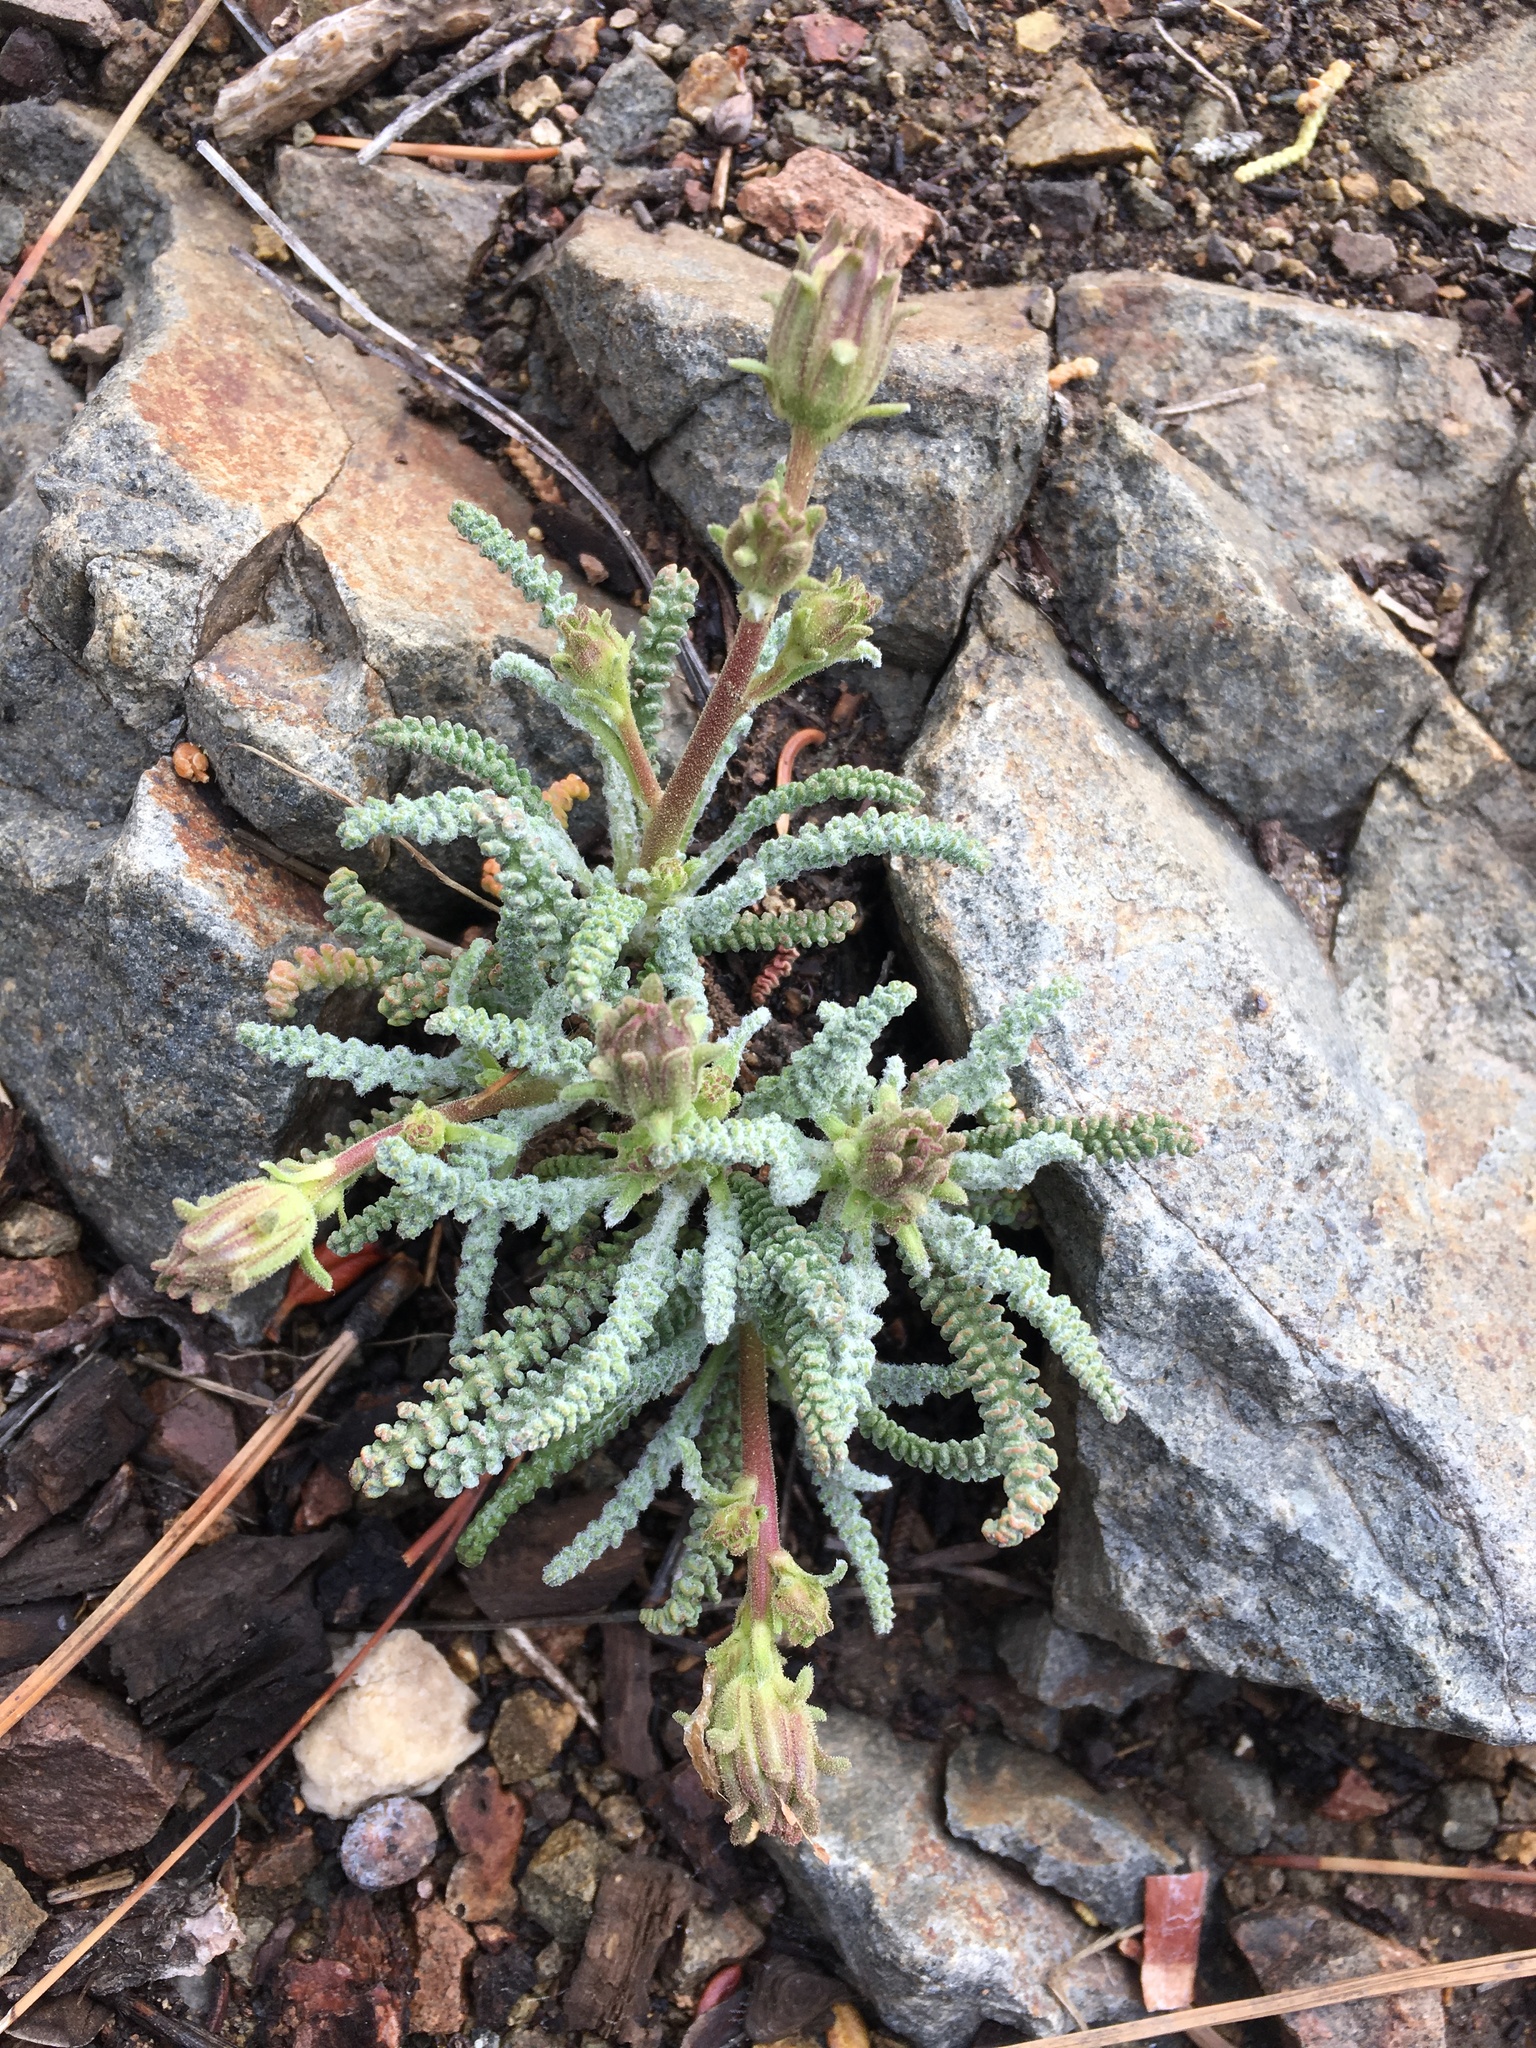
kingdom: Plantae
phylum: Tracheophyta
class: Magnoliopsida
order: Asterales
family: Asteraceae
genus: Chaenactis
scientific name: Chaenactis santolinoides
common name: Santolina pincushion
